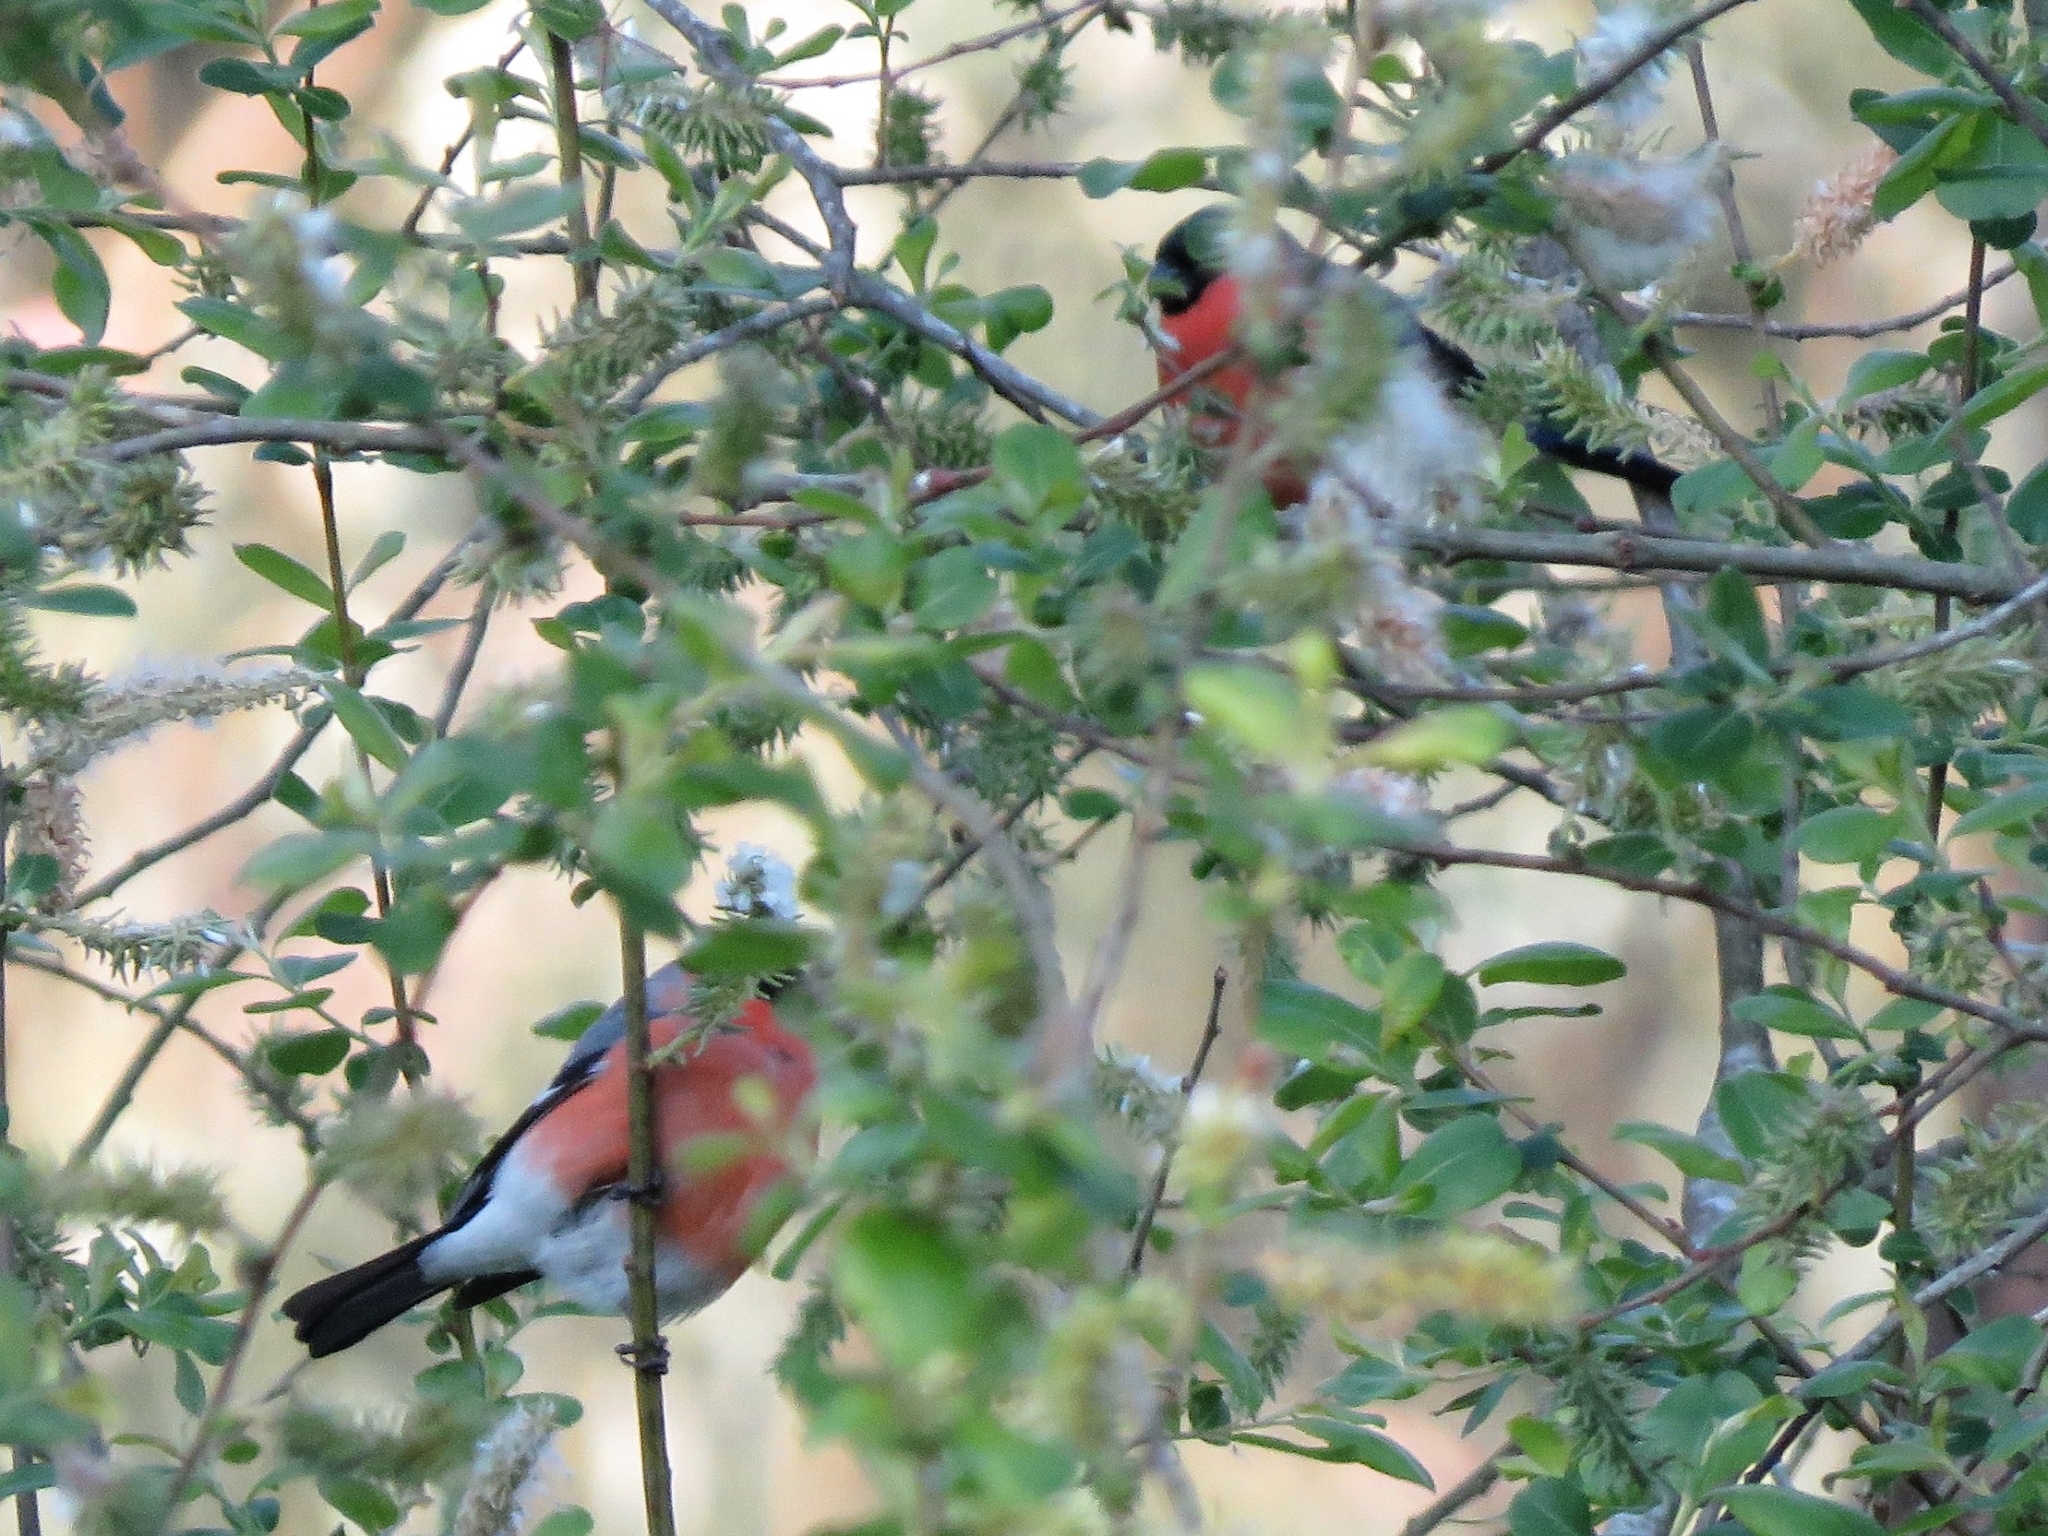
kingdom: Animalia
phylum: Chordata
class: Aves
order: Passeriformes
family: Fringillidae
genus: Pyrrhula
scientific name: Pyrrhula pyrrhula
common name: Eurasian bullfinch
